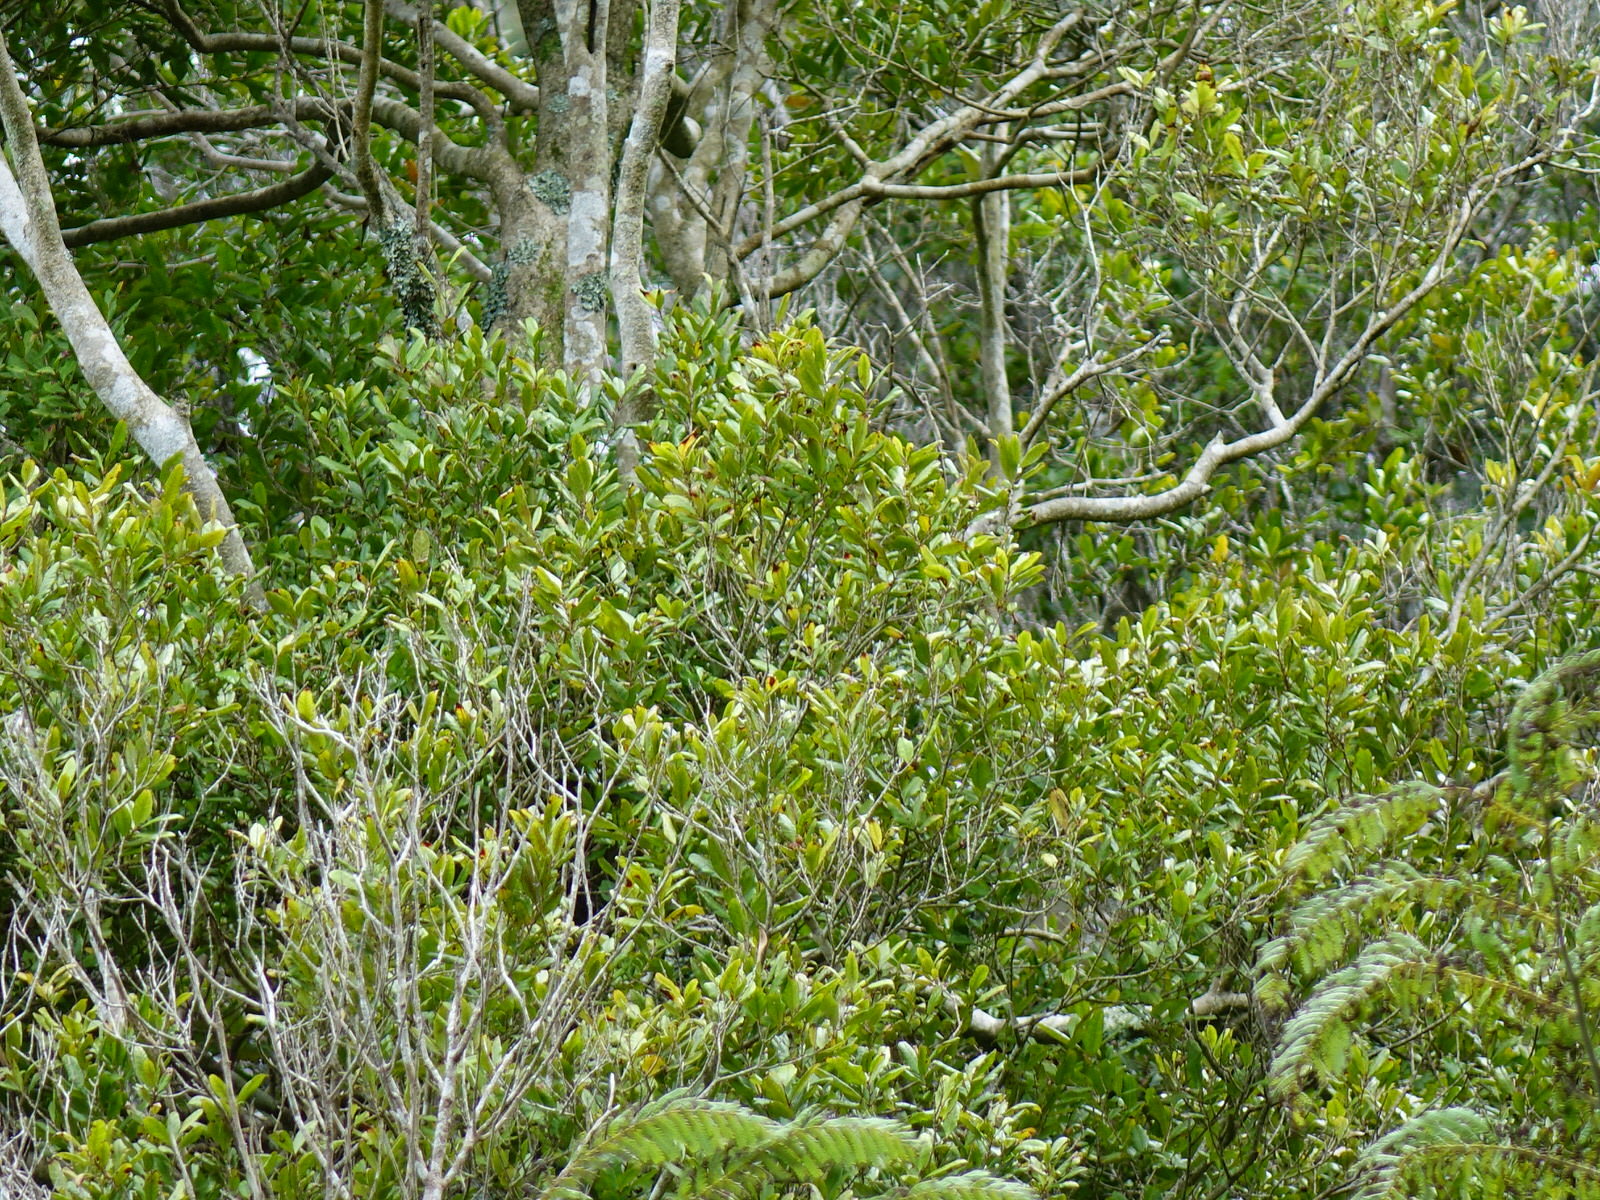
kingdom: Plantae
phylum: Tracheophyta
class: Magnoliopsida
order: Myrtales
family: Myrtaceae
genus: Syzygium
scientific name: Syzygium maire
